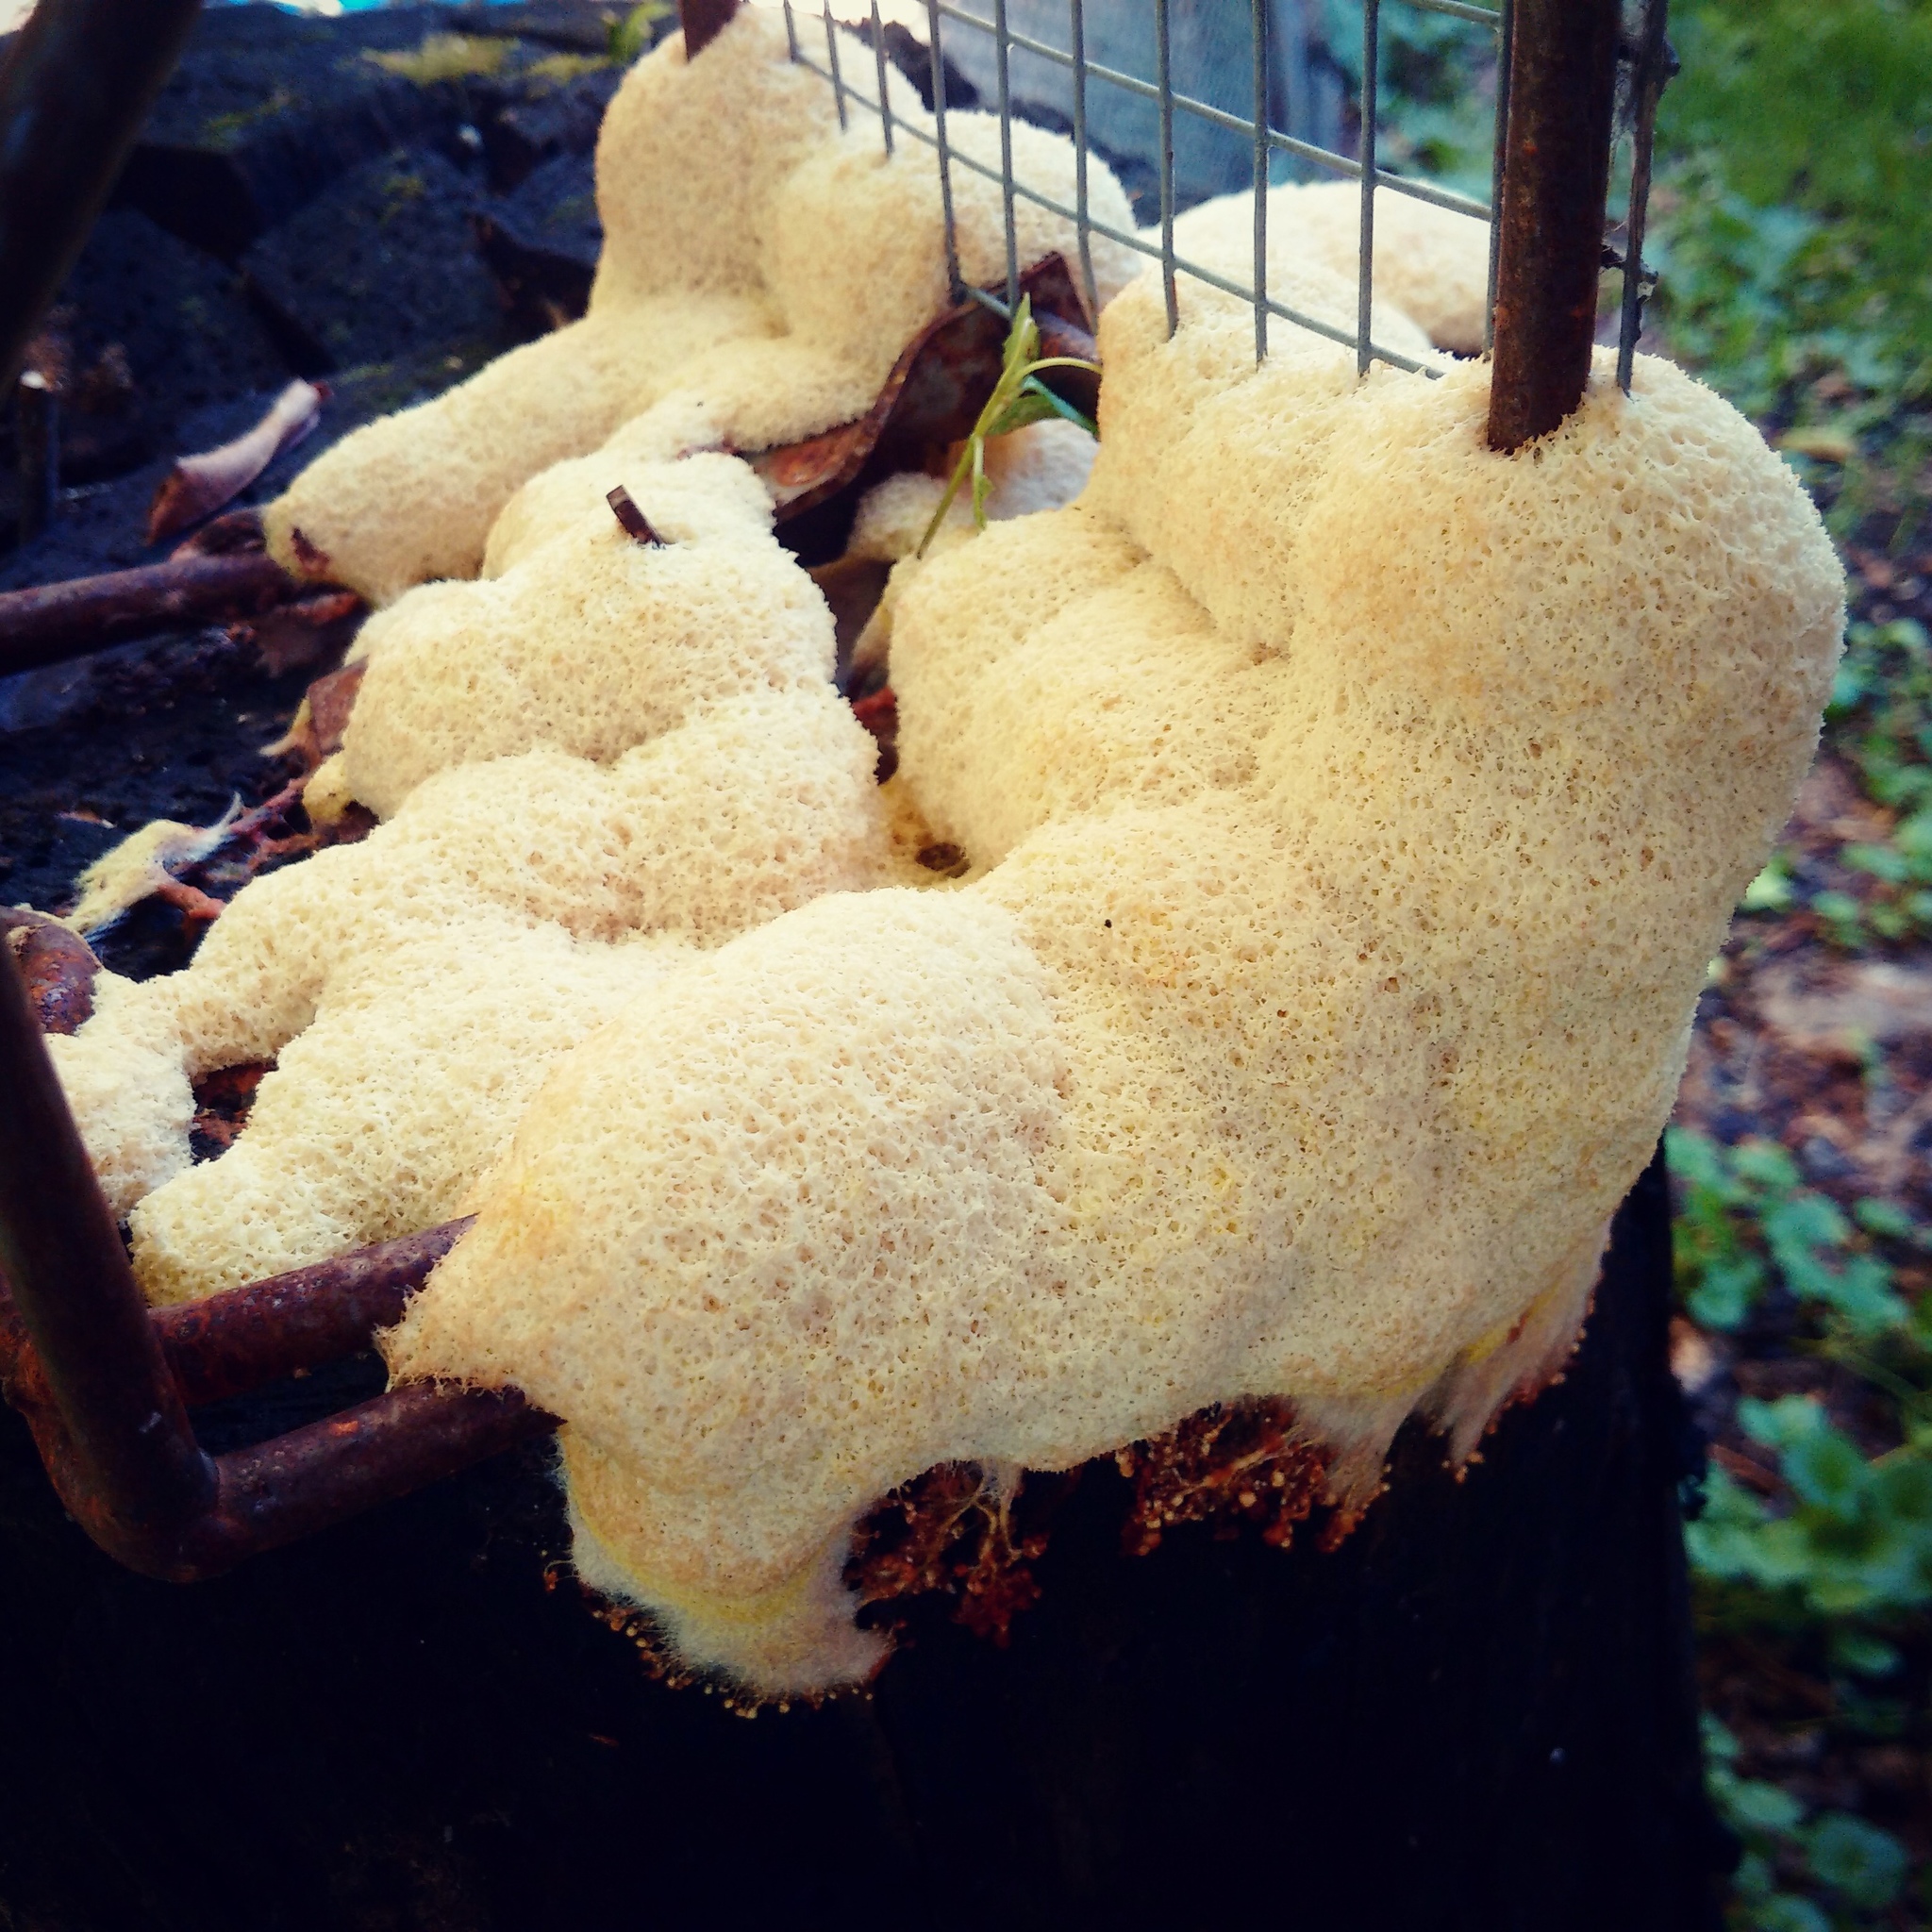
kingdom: Protozoa
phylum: Mycetozoa
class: Myxomycetes
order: Physarales
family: Physaraceae
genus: Fuligo
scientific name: Fuligo septica
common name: Dog vomit slime mold
